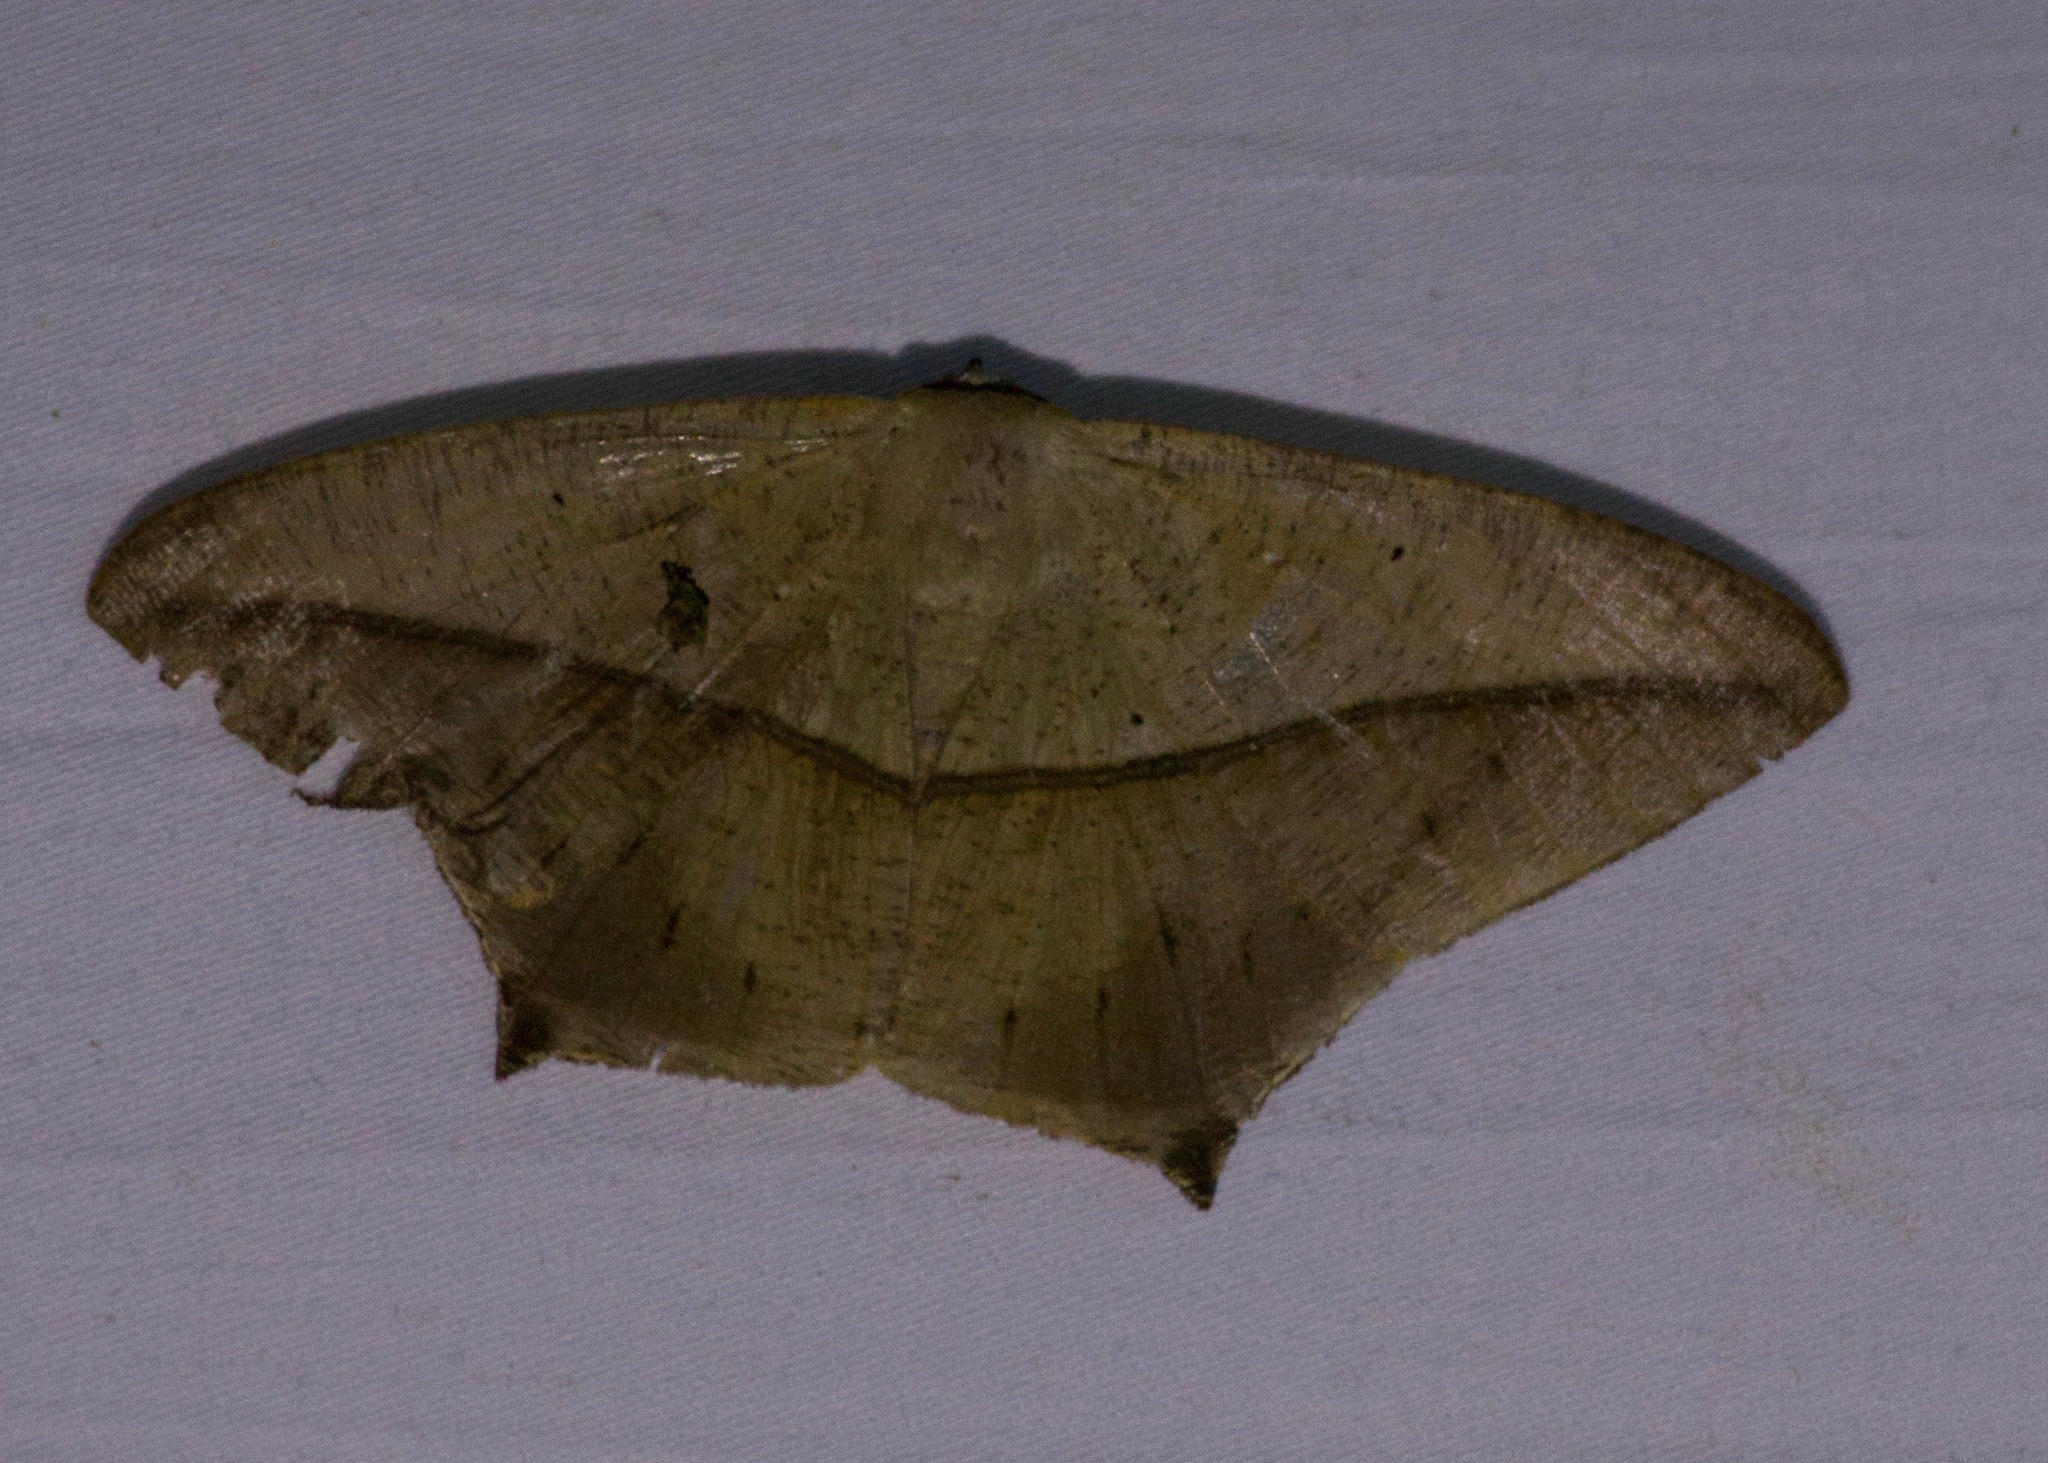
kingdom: Animalia
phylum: Arthropoda
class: Insecta
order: Lepidoptera
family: Geometridae
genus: Prochoerodes
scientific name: Prochoerodes tetragonata
